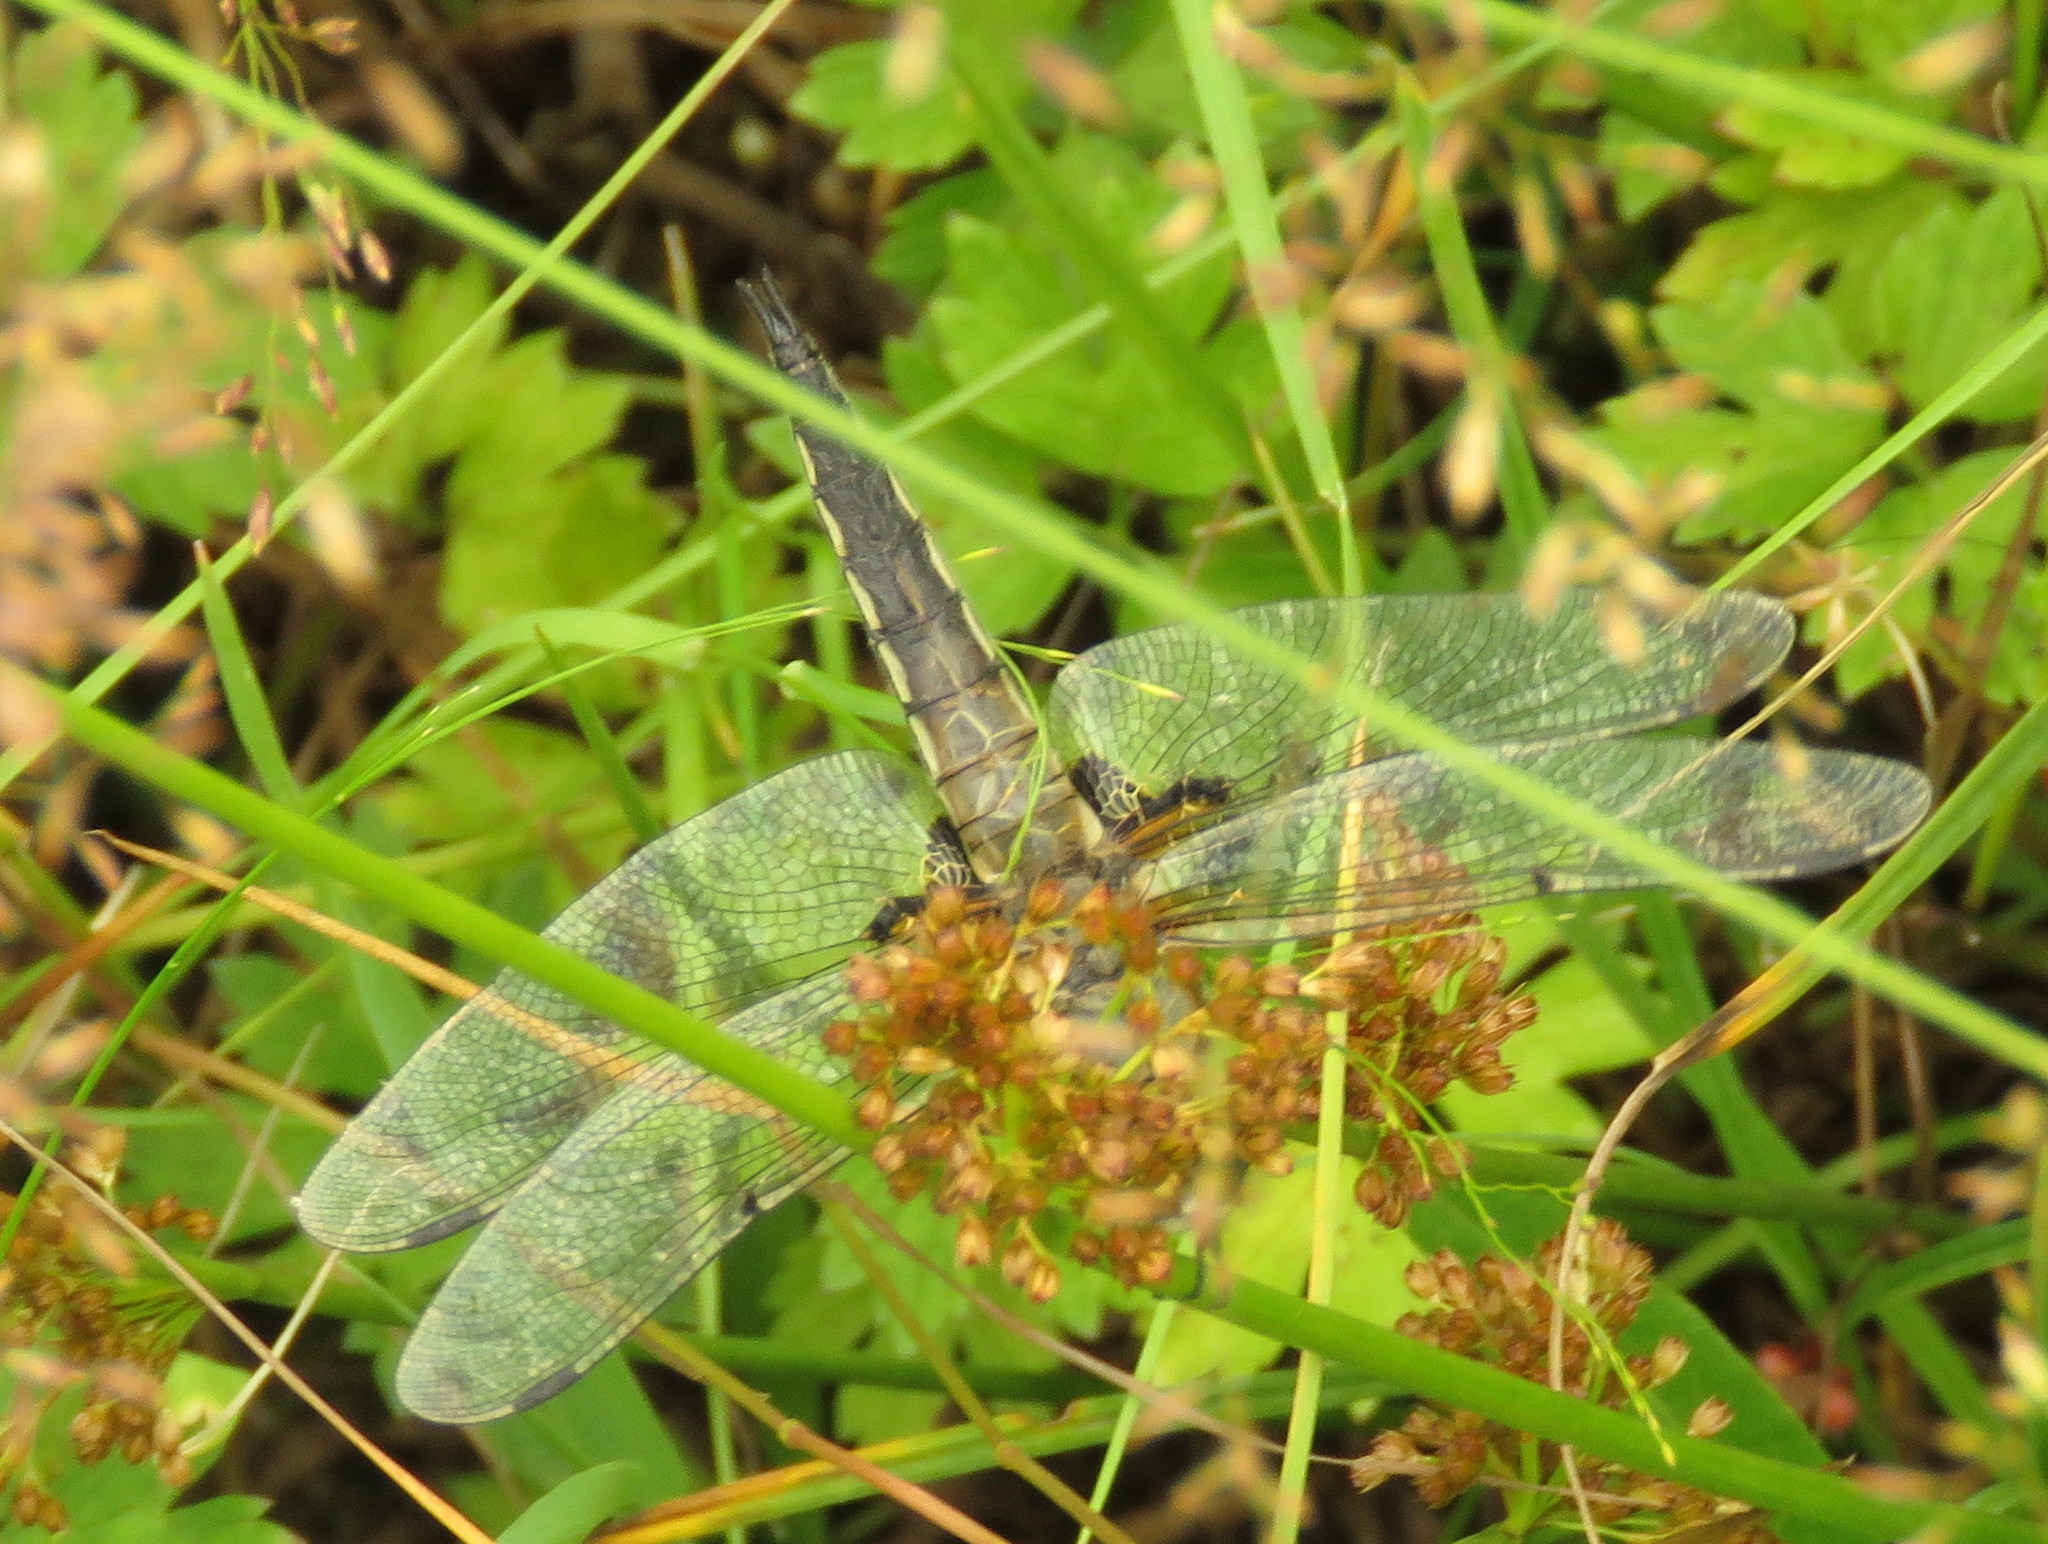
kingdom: Animalia
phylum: Arthropoda
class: Insecta
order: Odonata
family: Libellulidae
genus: Libellula
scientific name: Libellula quadrimaculata
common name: Four-spotted chaser
